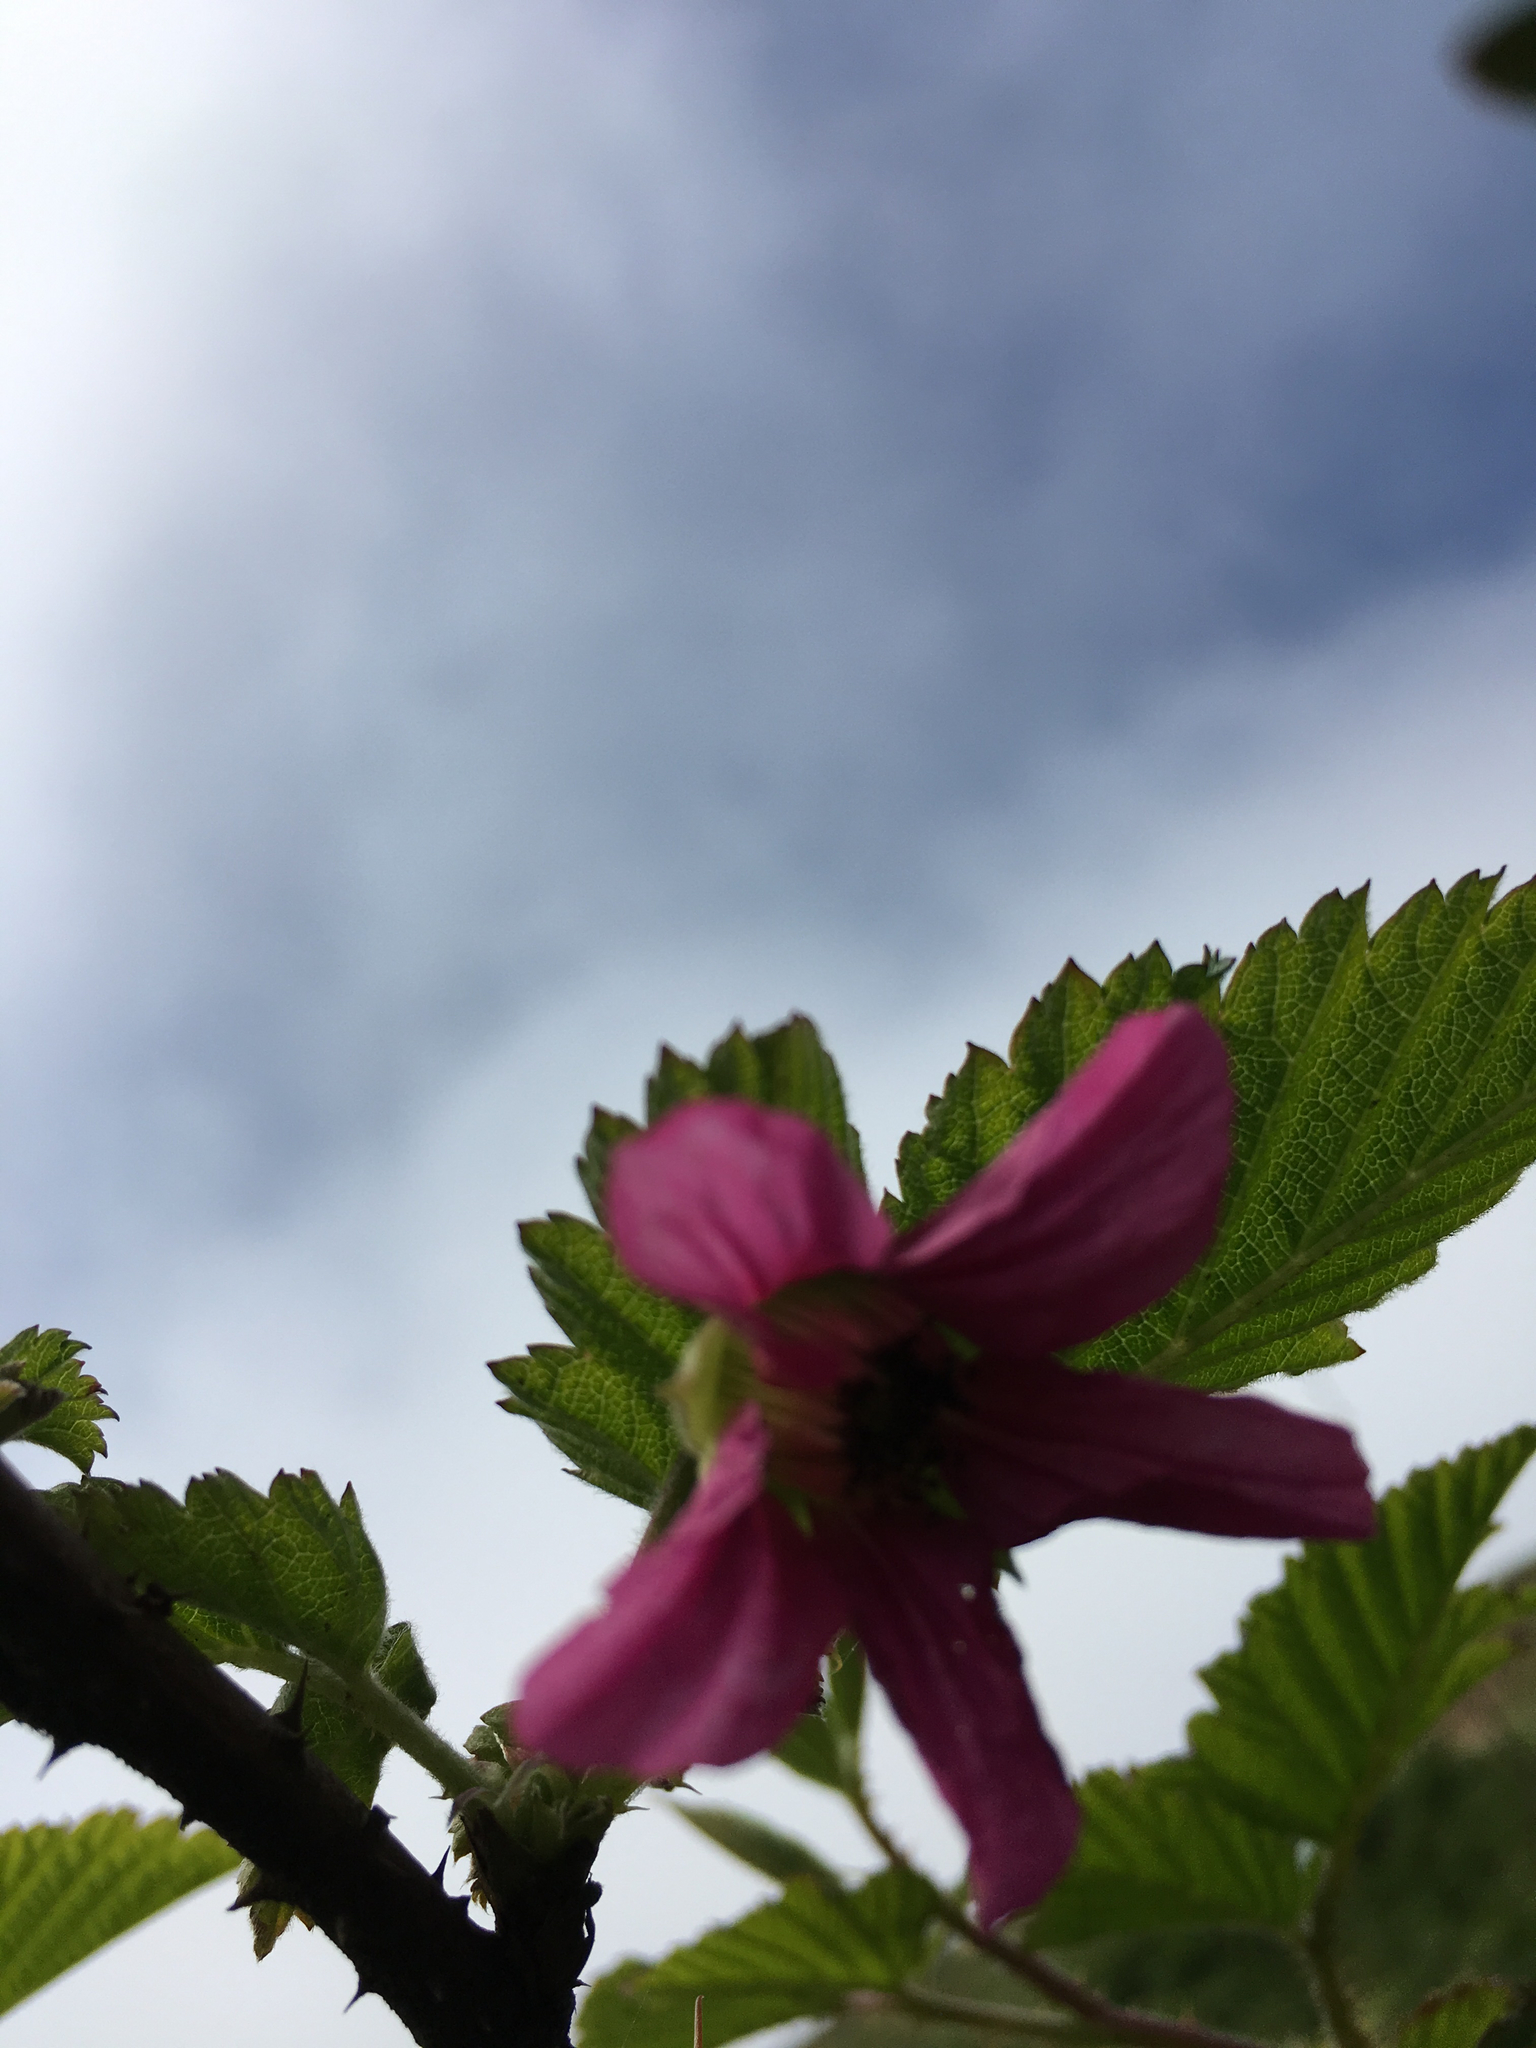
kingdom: Plantae
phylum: Tracheophyta
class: Magnoliopsida
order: Rosales
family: Rosaceae
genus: Rubus
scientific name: Rubus spectabilis
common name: Salmonberry
